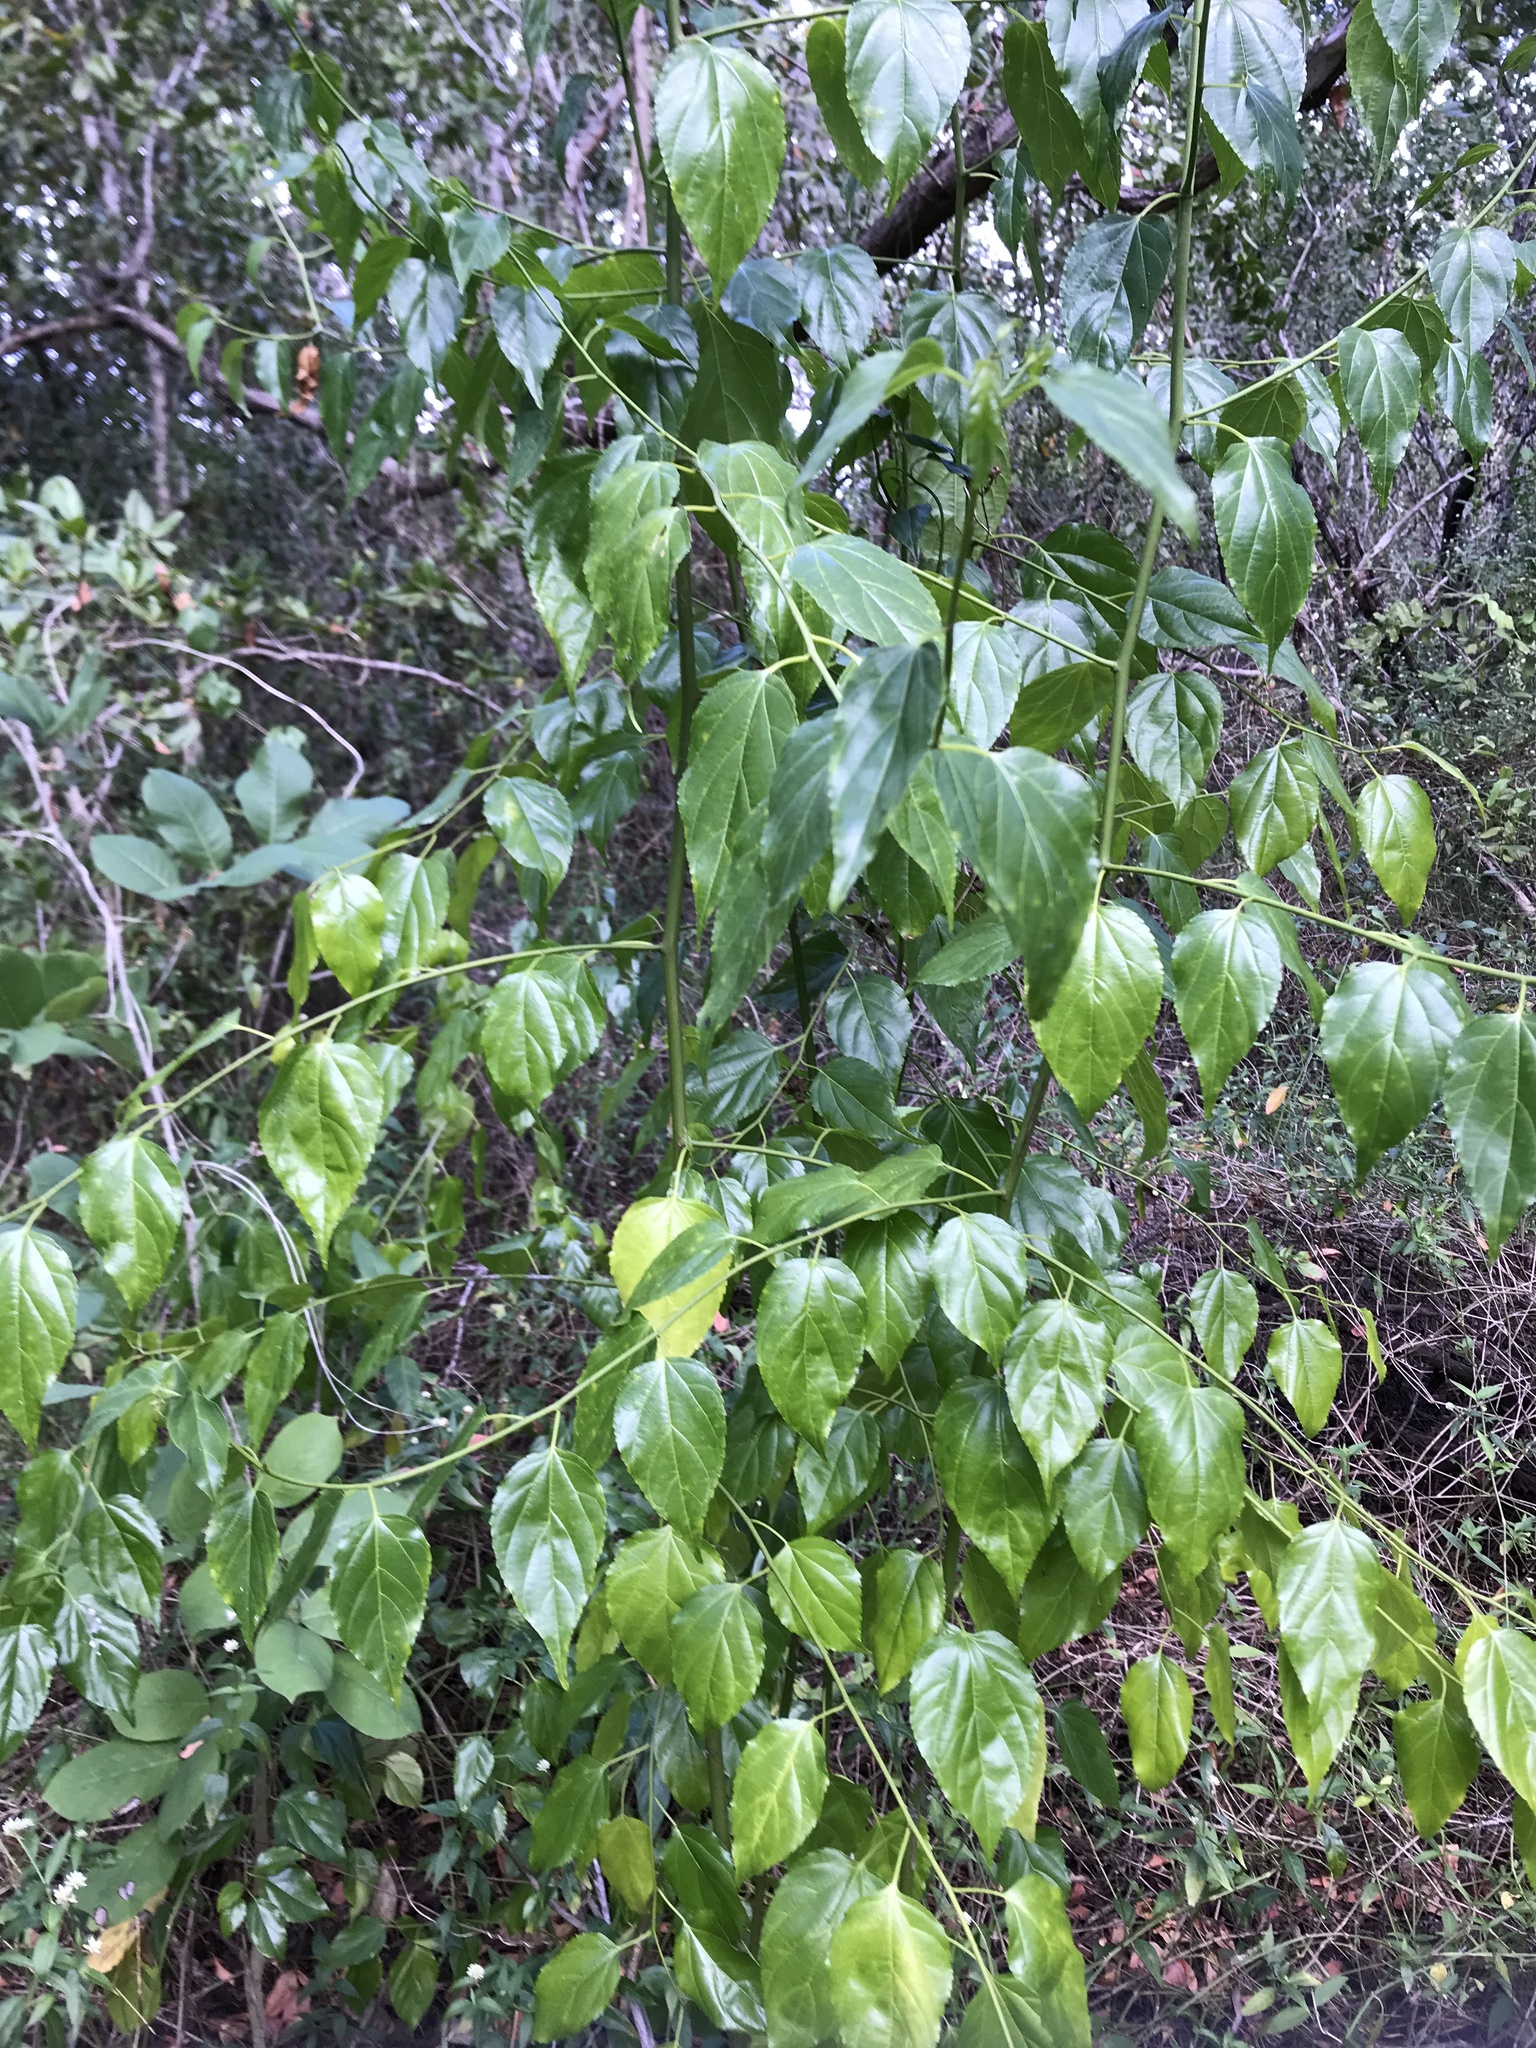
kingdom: Plantae
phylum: Tracheophyta
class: Magnoliopsida
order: Rosales
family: Rhamnaceae
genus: Colubrina
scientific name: Colubrina asiatica
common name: Asian nakedwood
